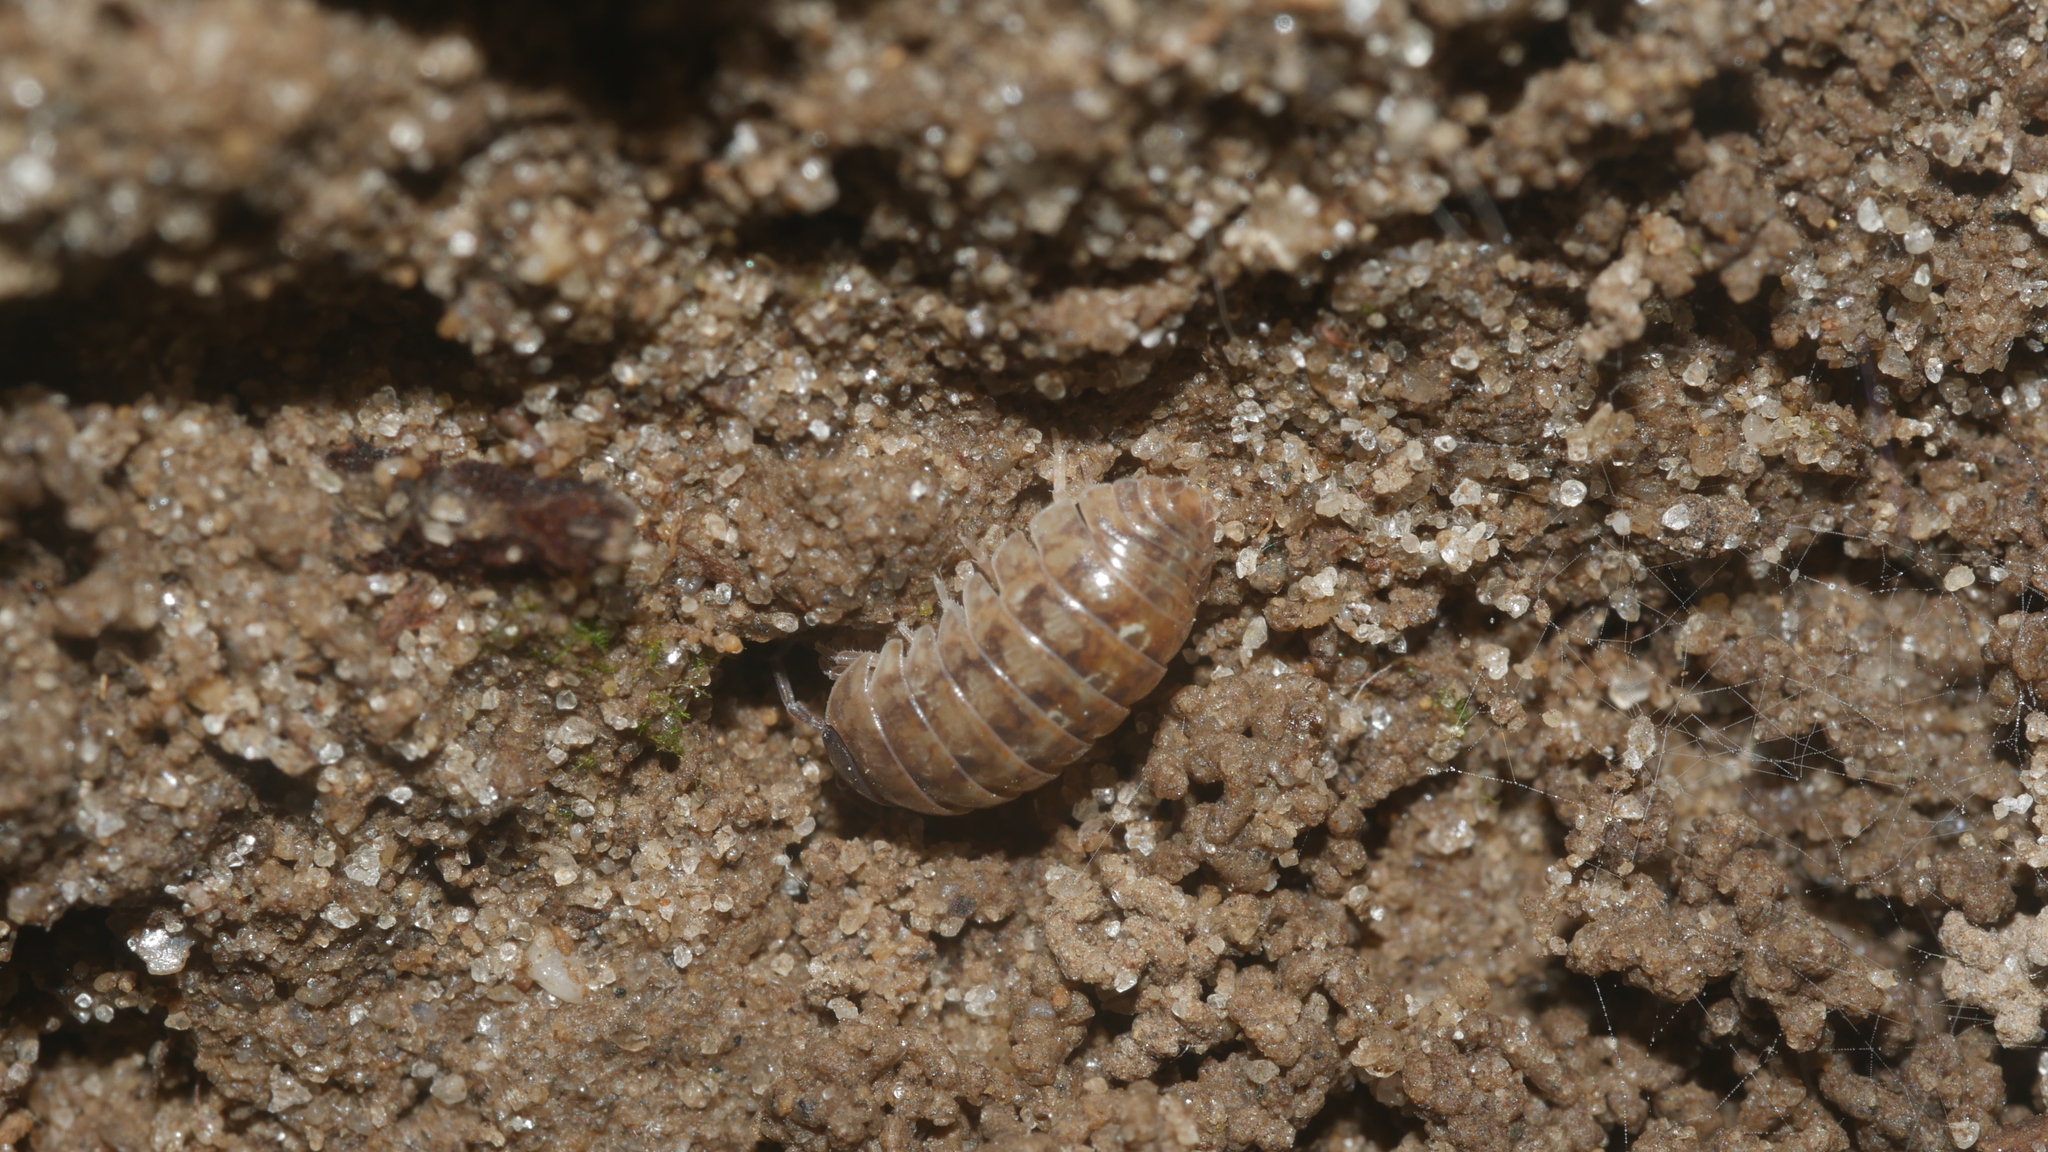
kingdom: Animalia
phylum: Arthropoda
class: Malacostraca
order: Isopoda
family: Armadillidiidae
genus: Armadillidium
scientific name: Armadillidium vulgare
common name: Common pill woodlouse
